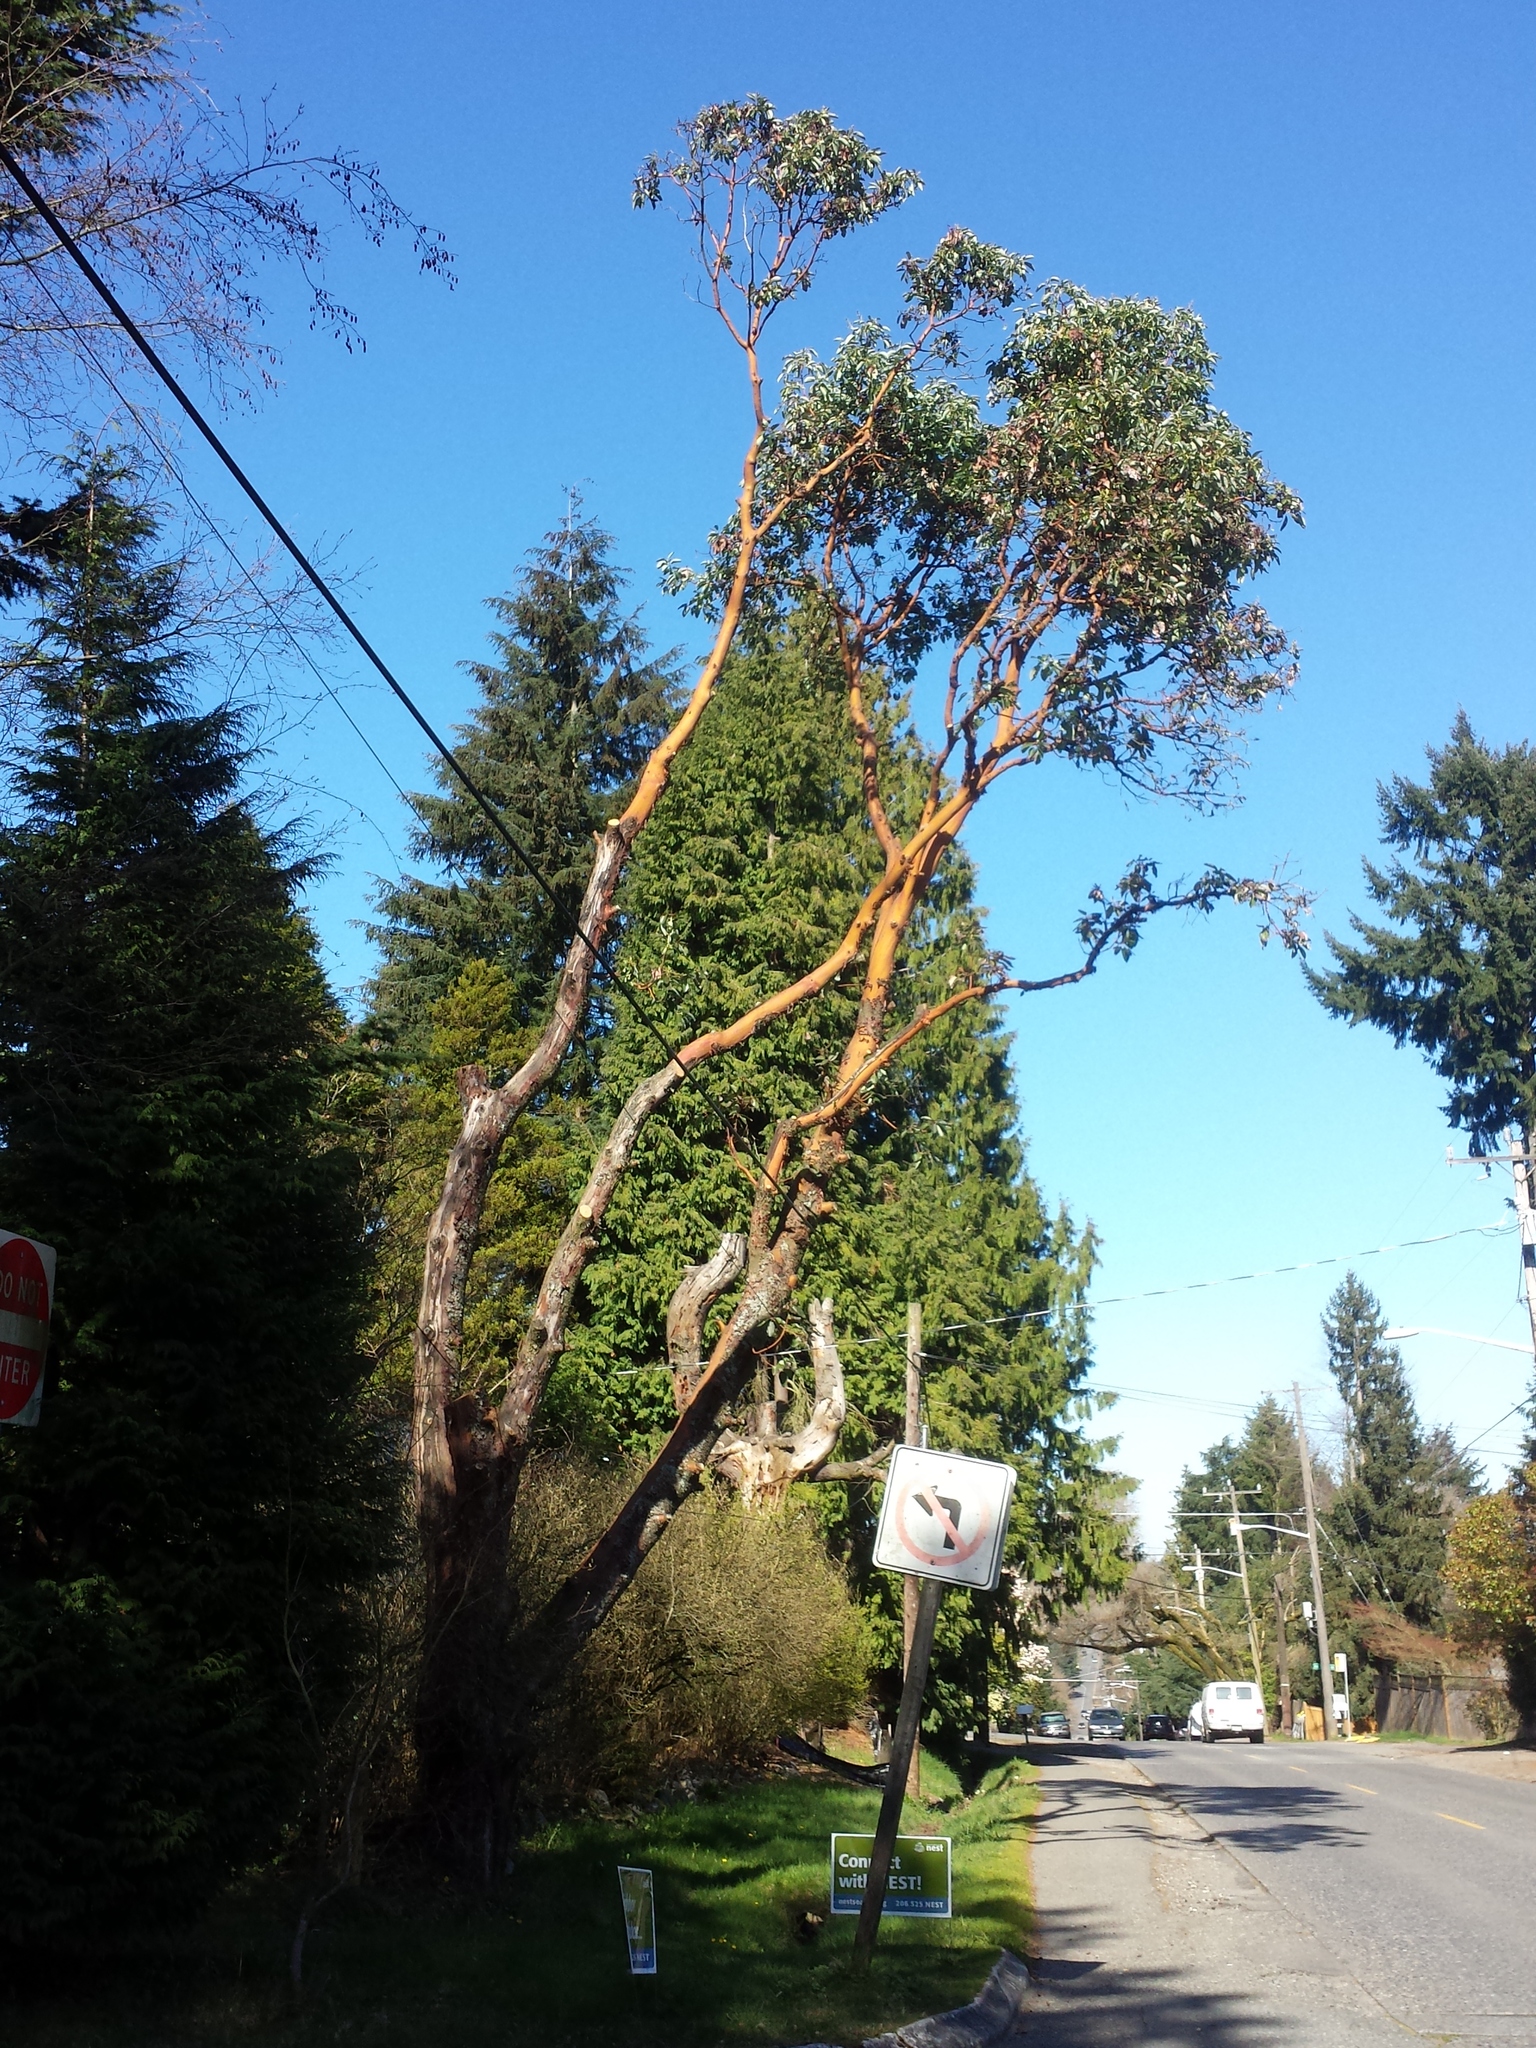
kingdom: Plantae
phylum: Tracheophyta
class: Magnoliopsida
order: Ericales
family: Ericaceae
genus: Arbutus
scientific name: Arbutus menziesii
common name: Pacific madrone
